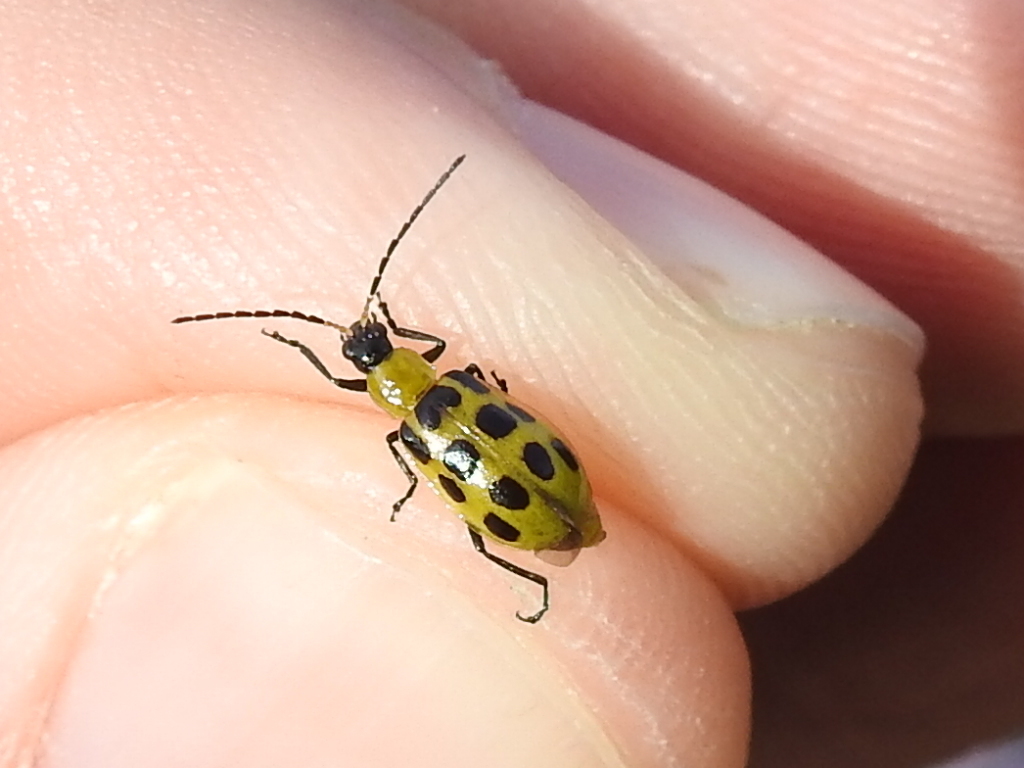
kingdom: Animalia
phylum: Arthropoda
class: Insecta
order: Coleoptera
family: Chrysomelidae
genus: Diabrotica
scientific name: Diabrotica undecimpunctata
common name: Spotted cucumber beetle
